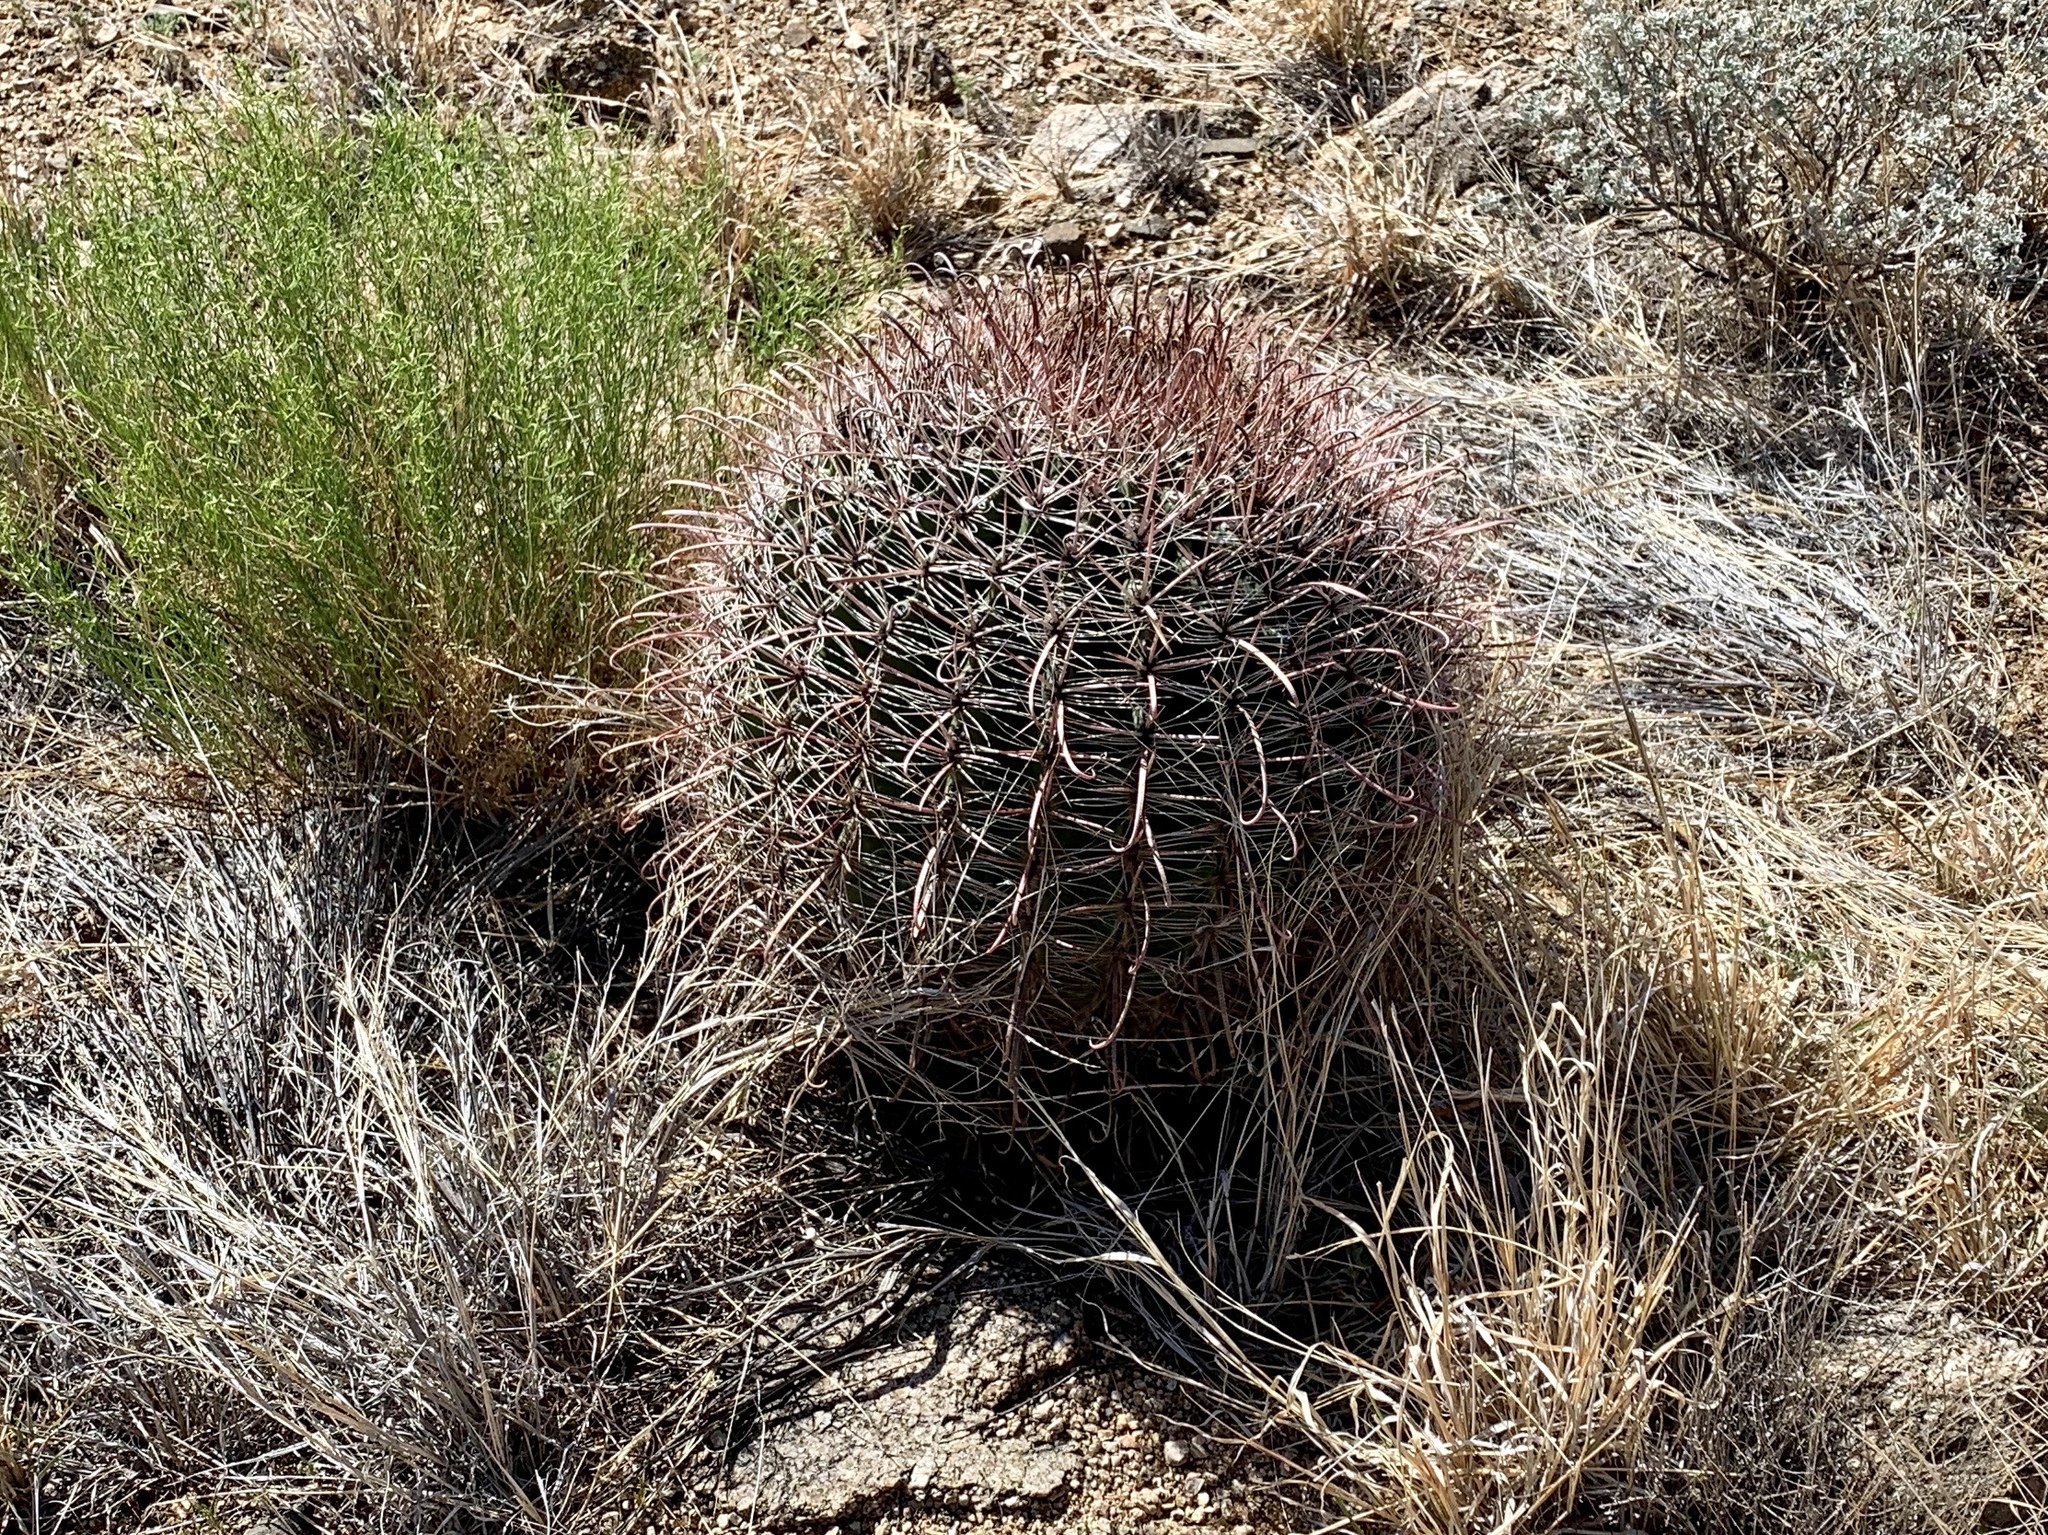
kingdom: Plantae
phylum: Tracheophyta
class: Magnoliopsida
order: Caryophyllales
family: Cactaceae
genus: Ferocactus
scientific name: Ferocactus wislizeni
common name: Candy barrel cactus
